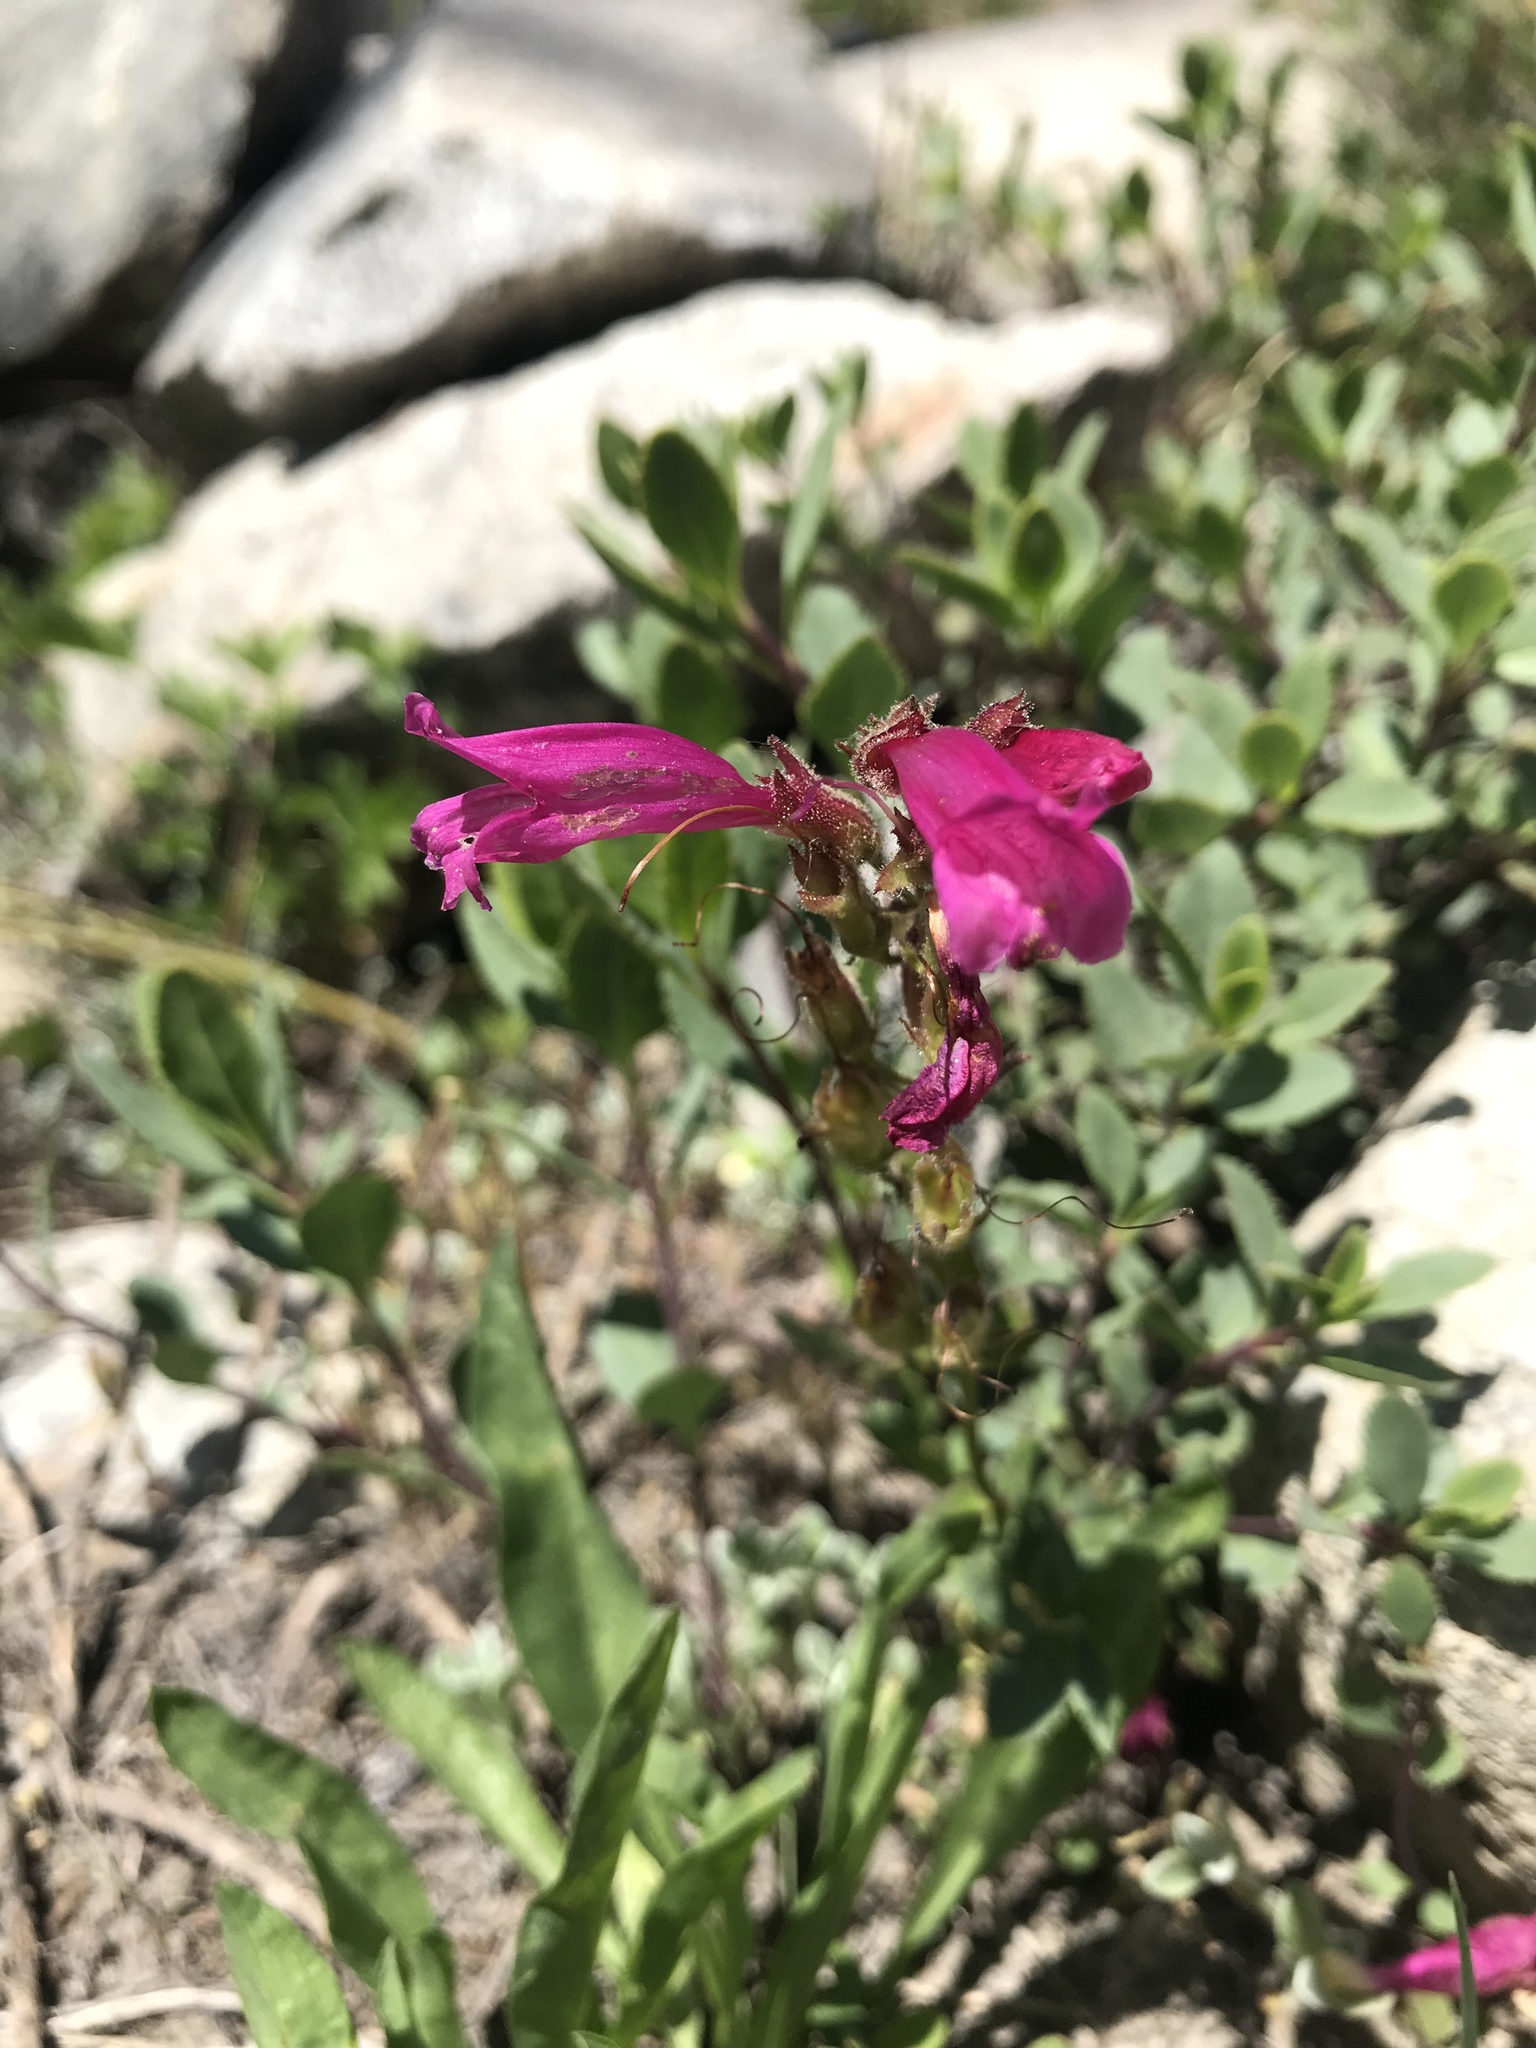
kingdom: Plantae
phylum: Tracheophyta
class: Magnoliopsida
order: Lamiales
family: Plantaginaceae
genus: Penstemon
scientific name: Penstemon newberryi
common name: Mountain-pride
